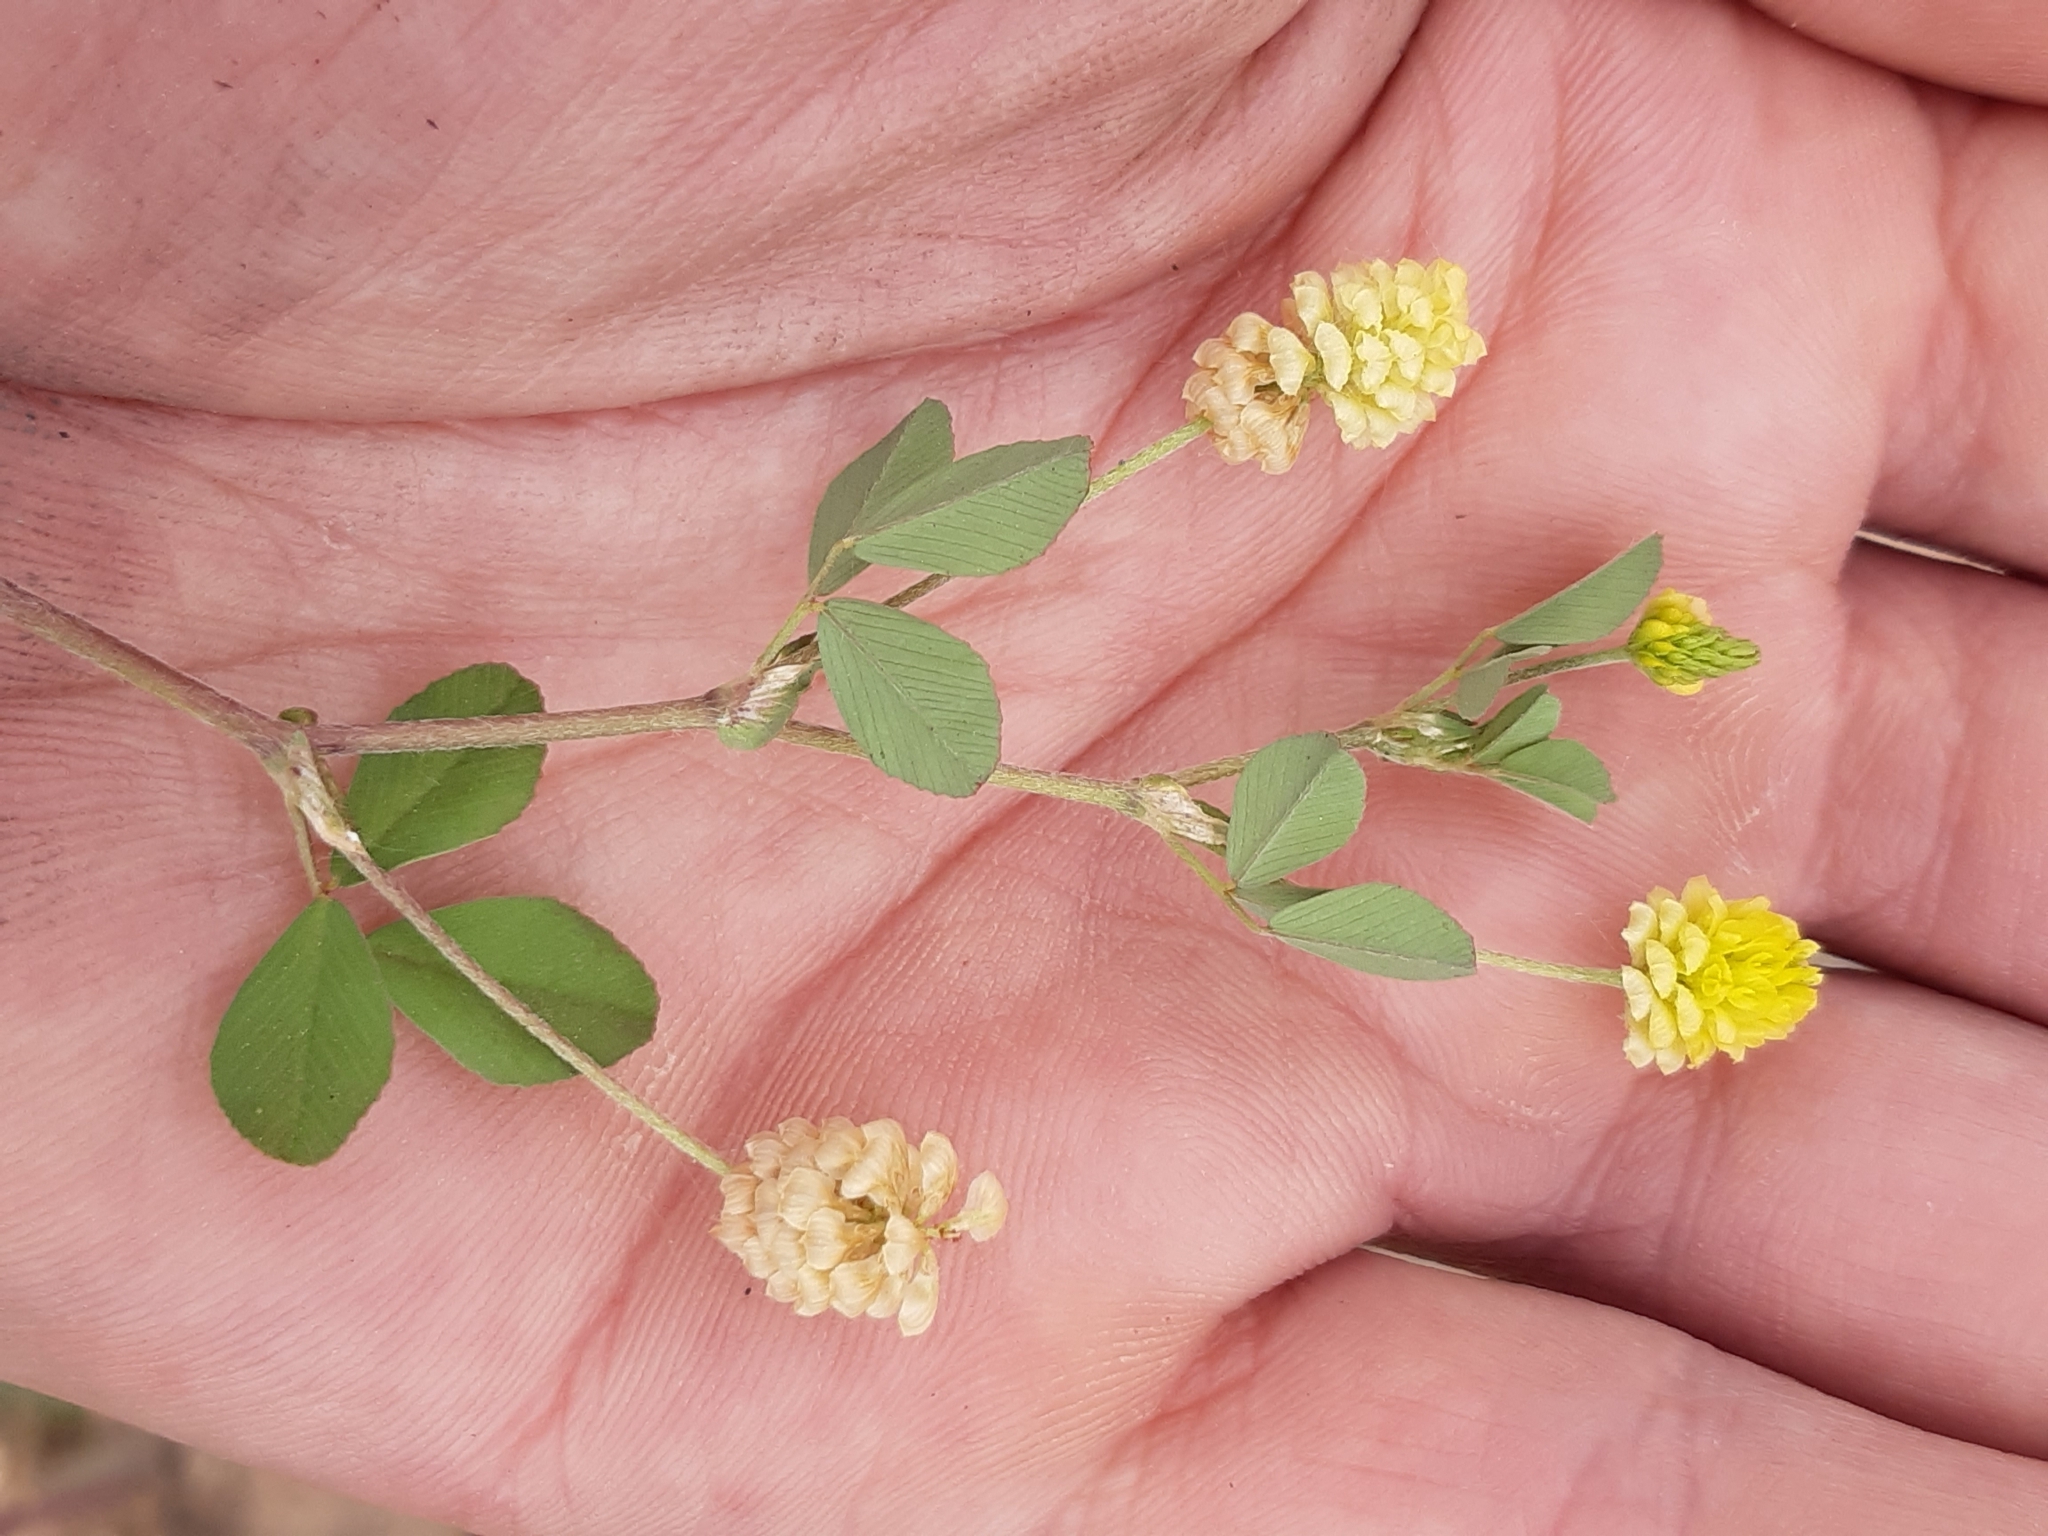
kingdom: Plantae
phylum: Tracheophyta
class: Magnoliopsida
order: Fabales
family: Fabaceae
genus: Trifolium
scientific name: Trifolium campestre
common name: Field clover
